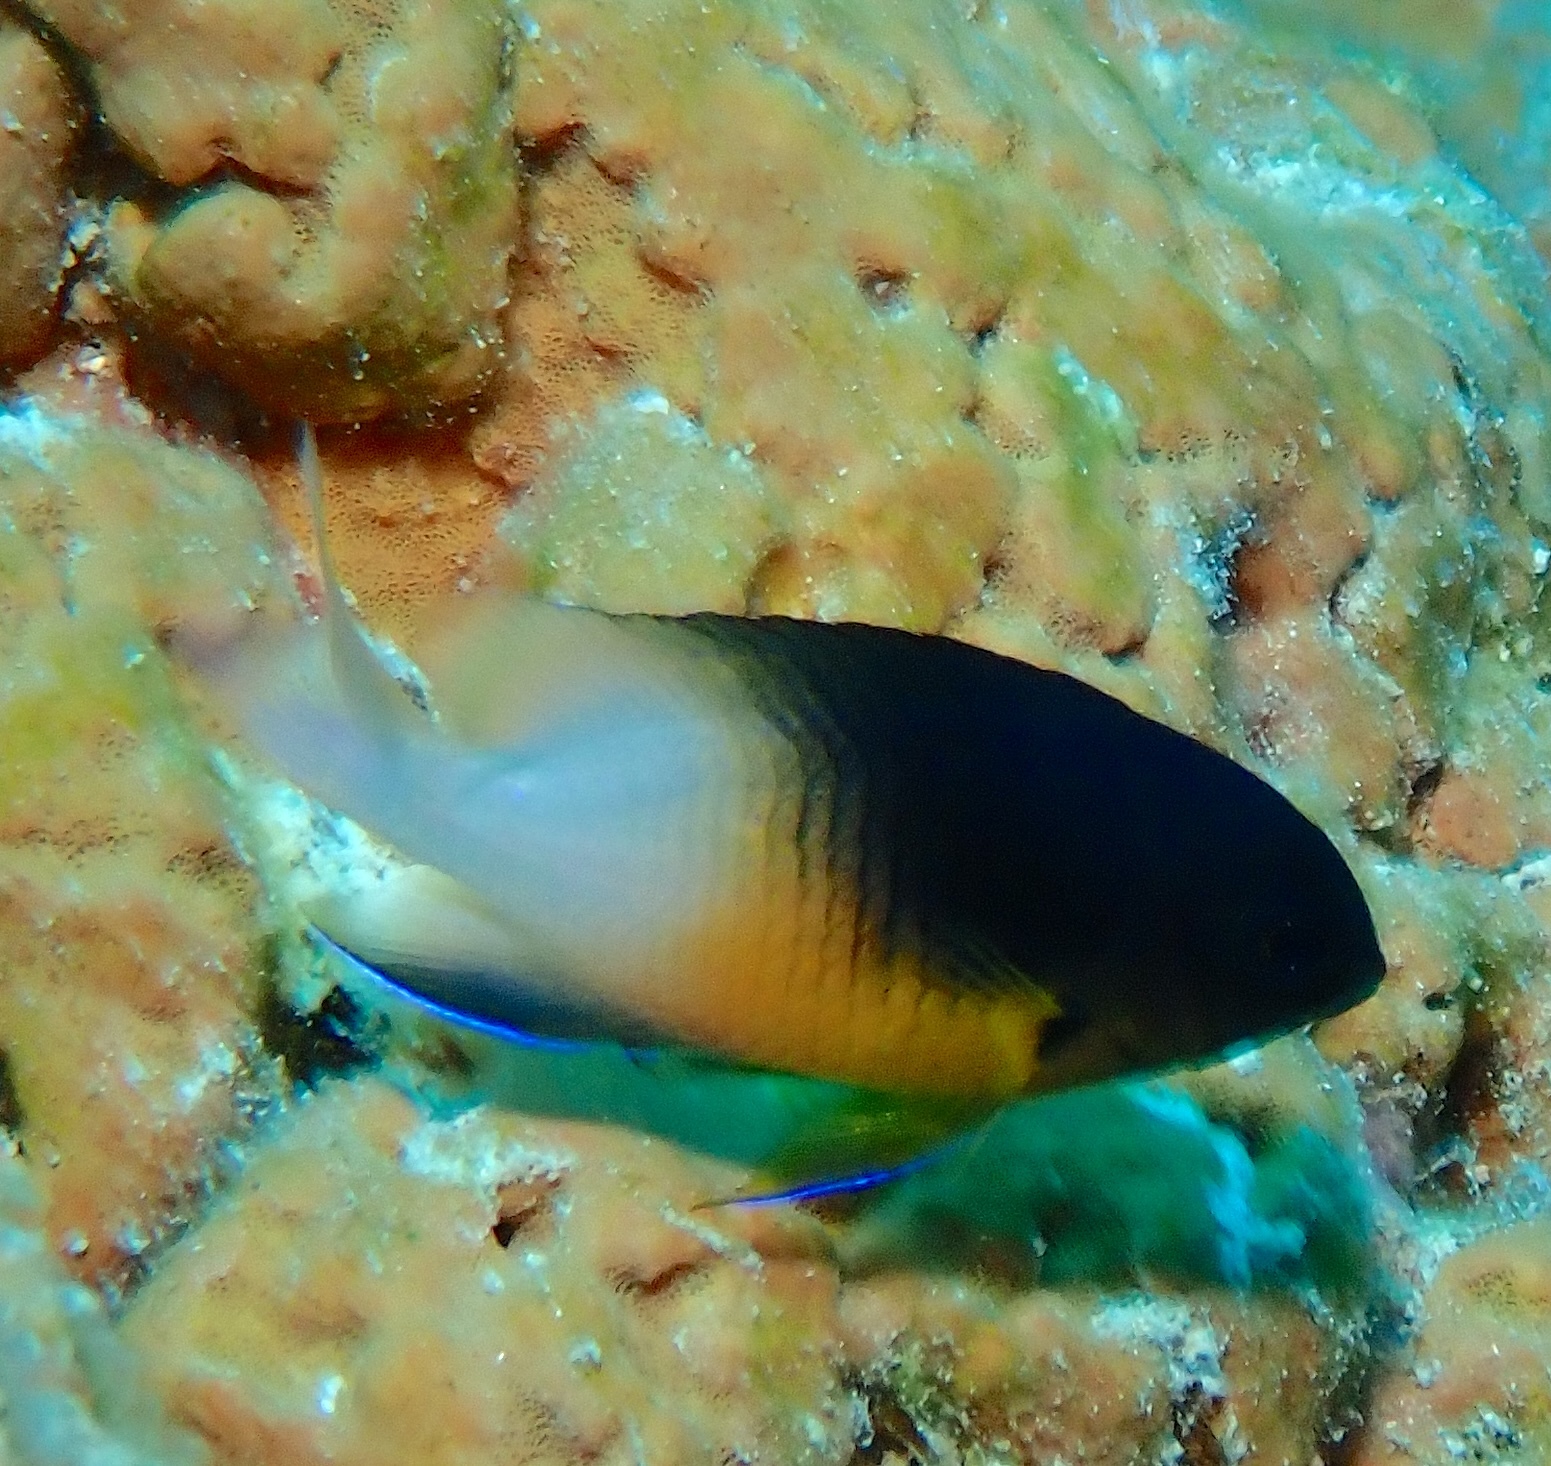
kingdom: Animalia
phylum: Chordata
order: Perciformes
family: Pomacentridae
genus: Stegastes
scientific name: Stegastes partitus
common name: Bicolor damselfish
